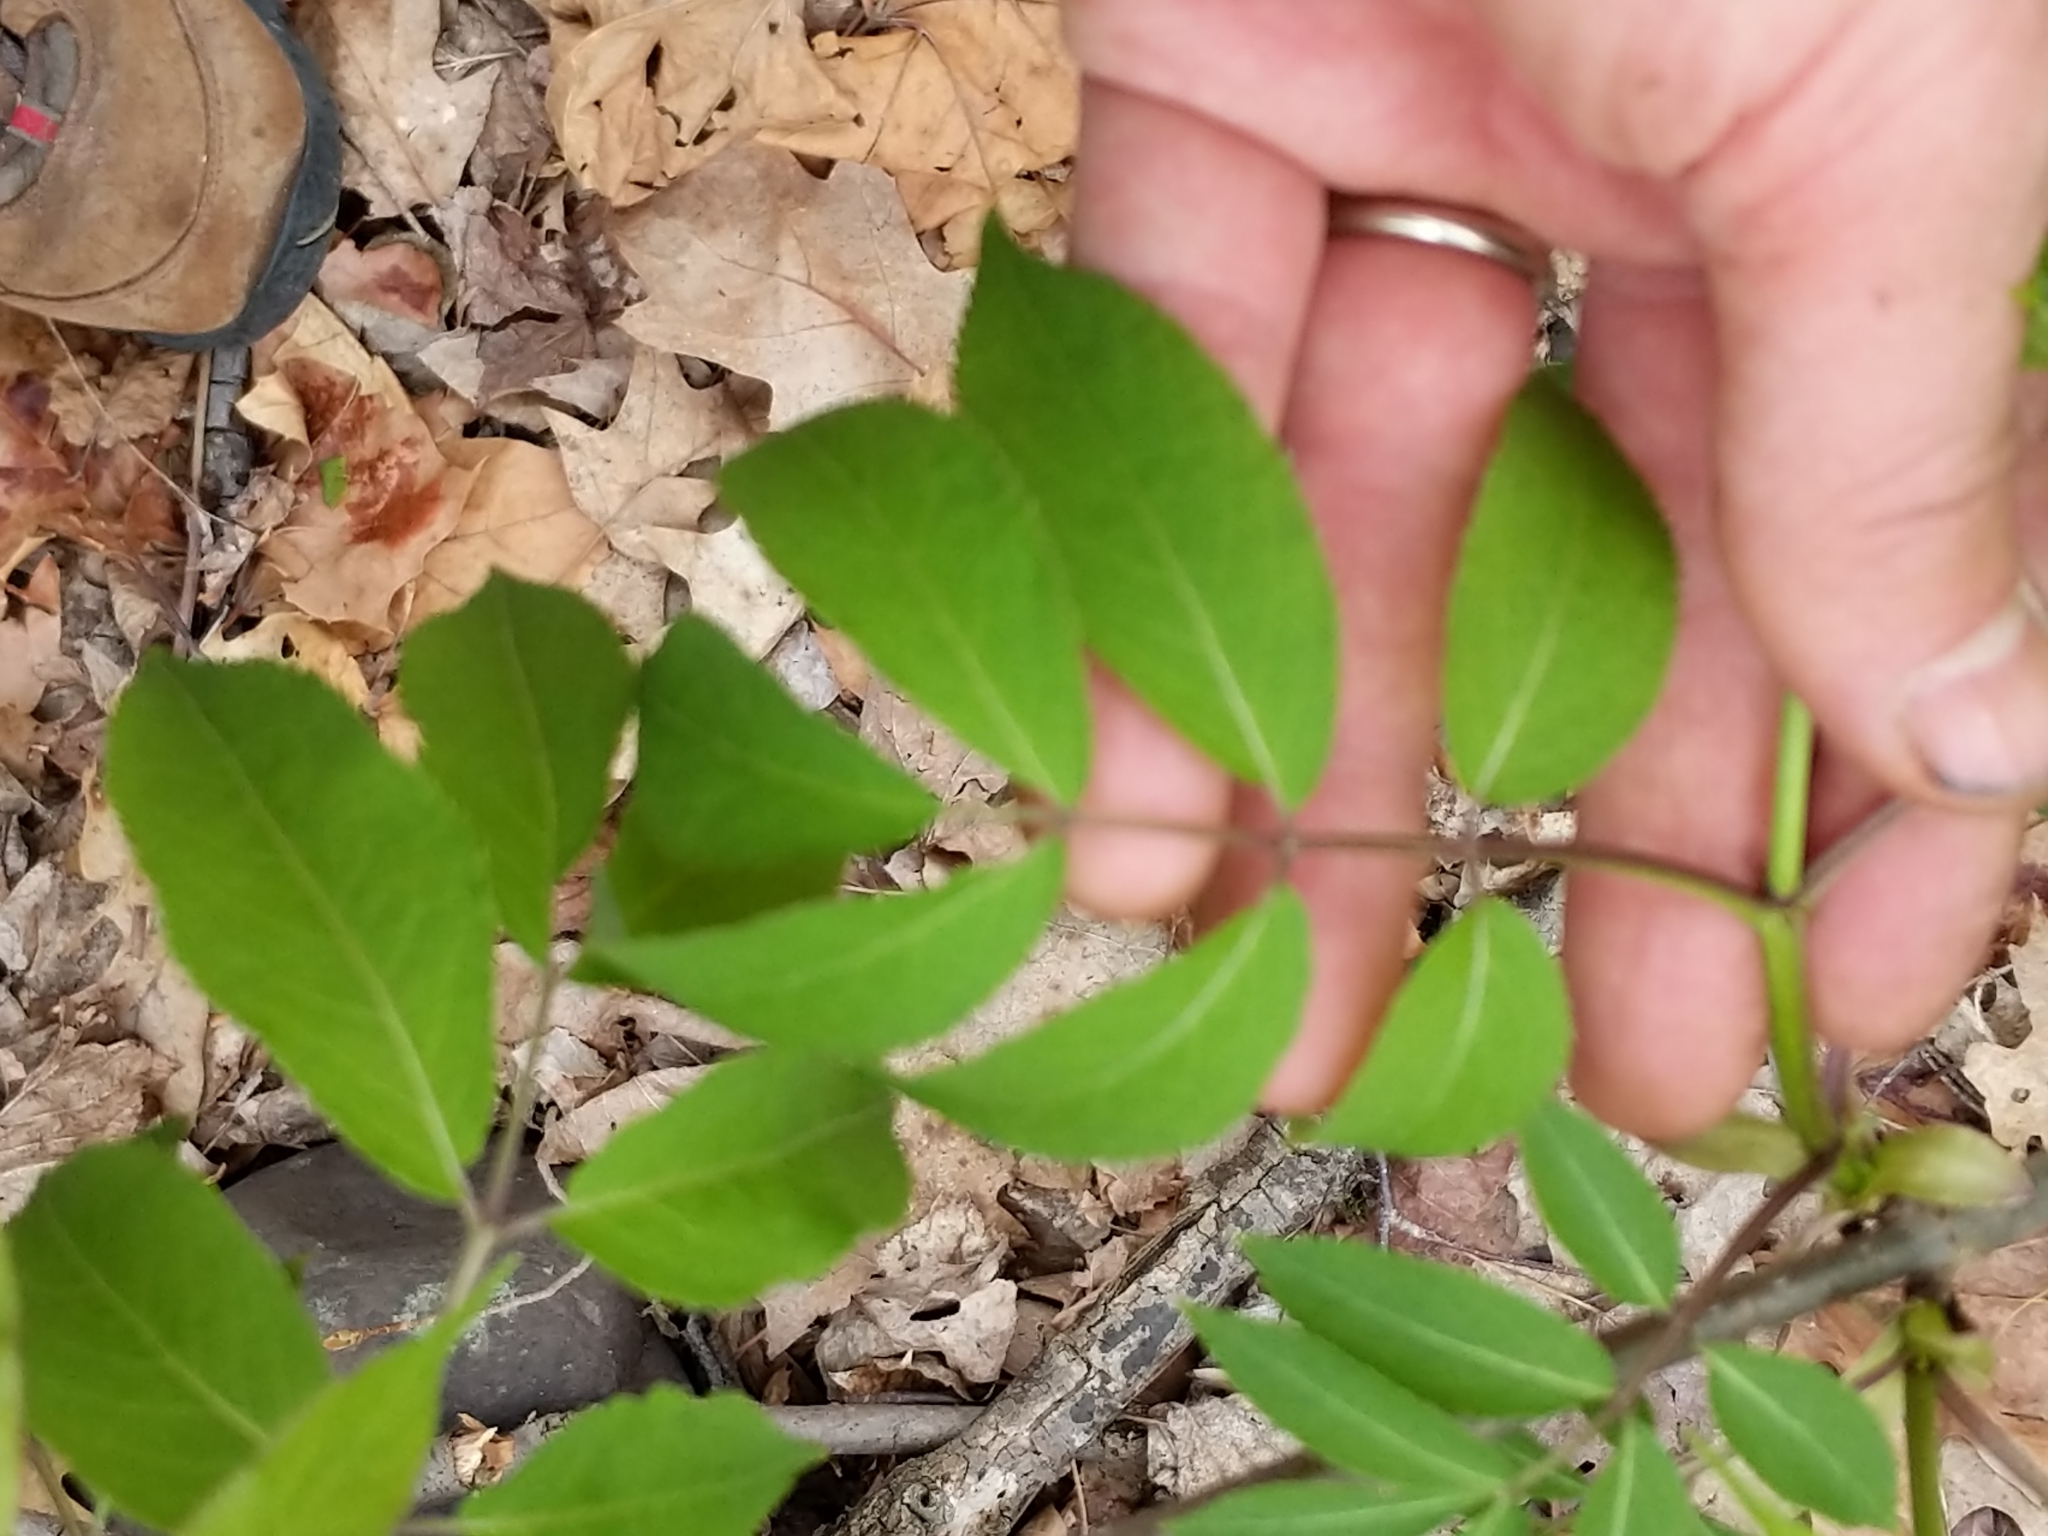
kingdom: Plantae
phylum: Tracheophyta
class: Magnoliopsida
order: Dipsacales
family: Viburnaceae
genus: Sambucus
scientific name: Sambucus racemosa
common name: Red-berried elder
